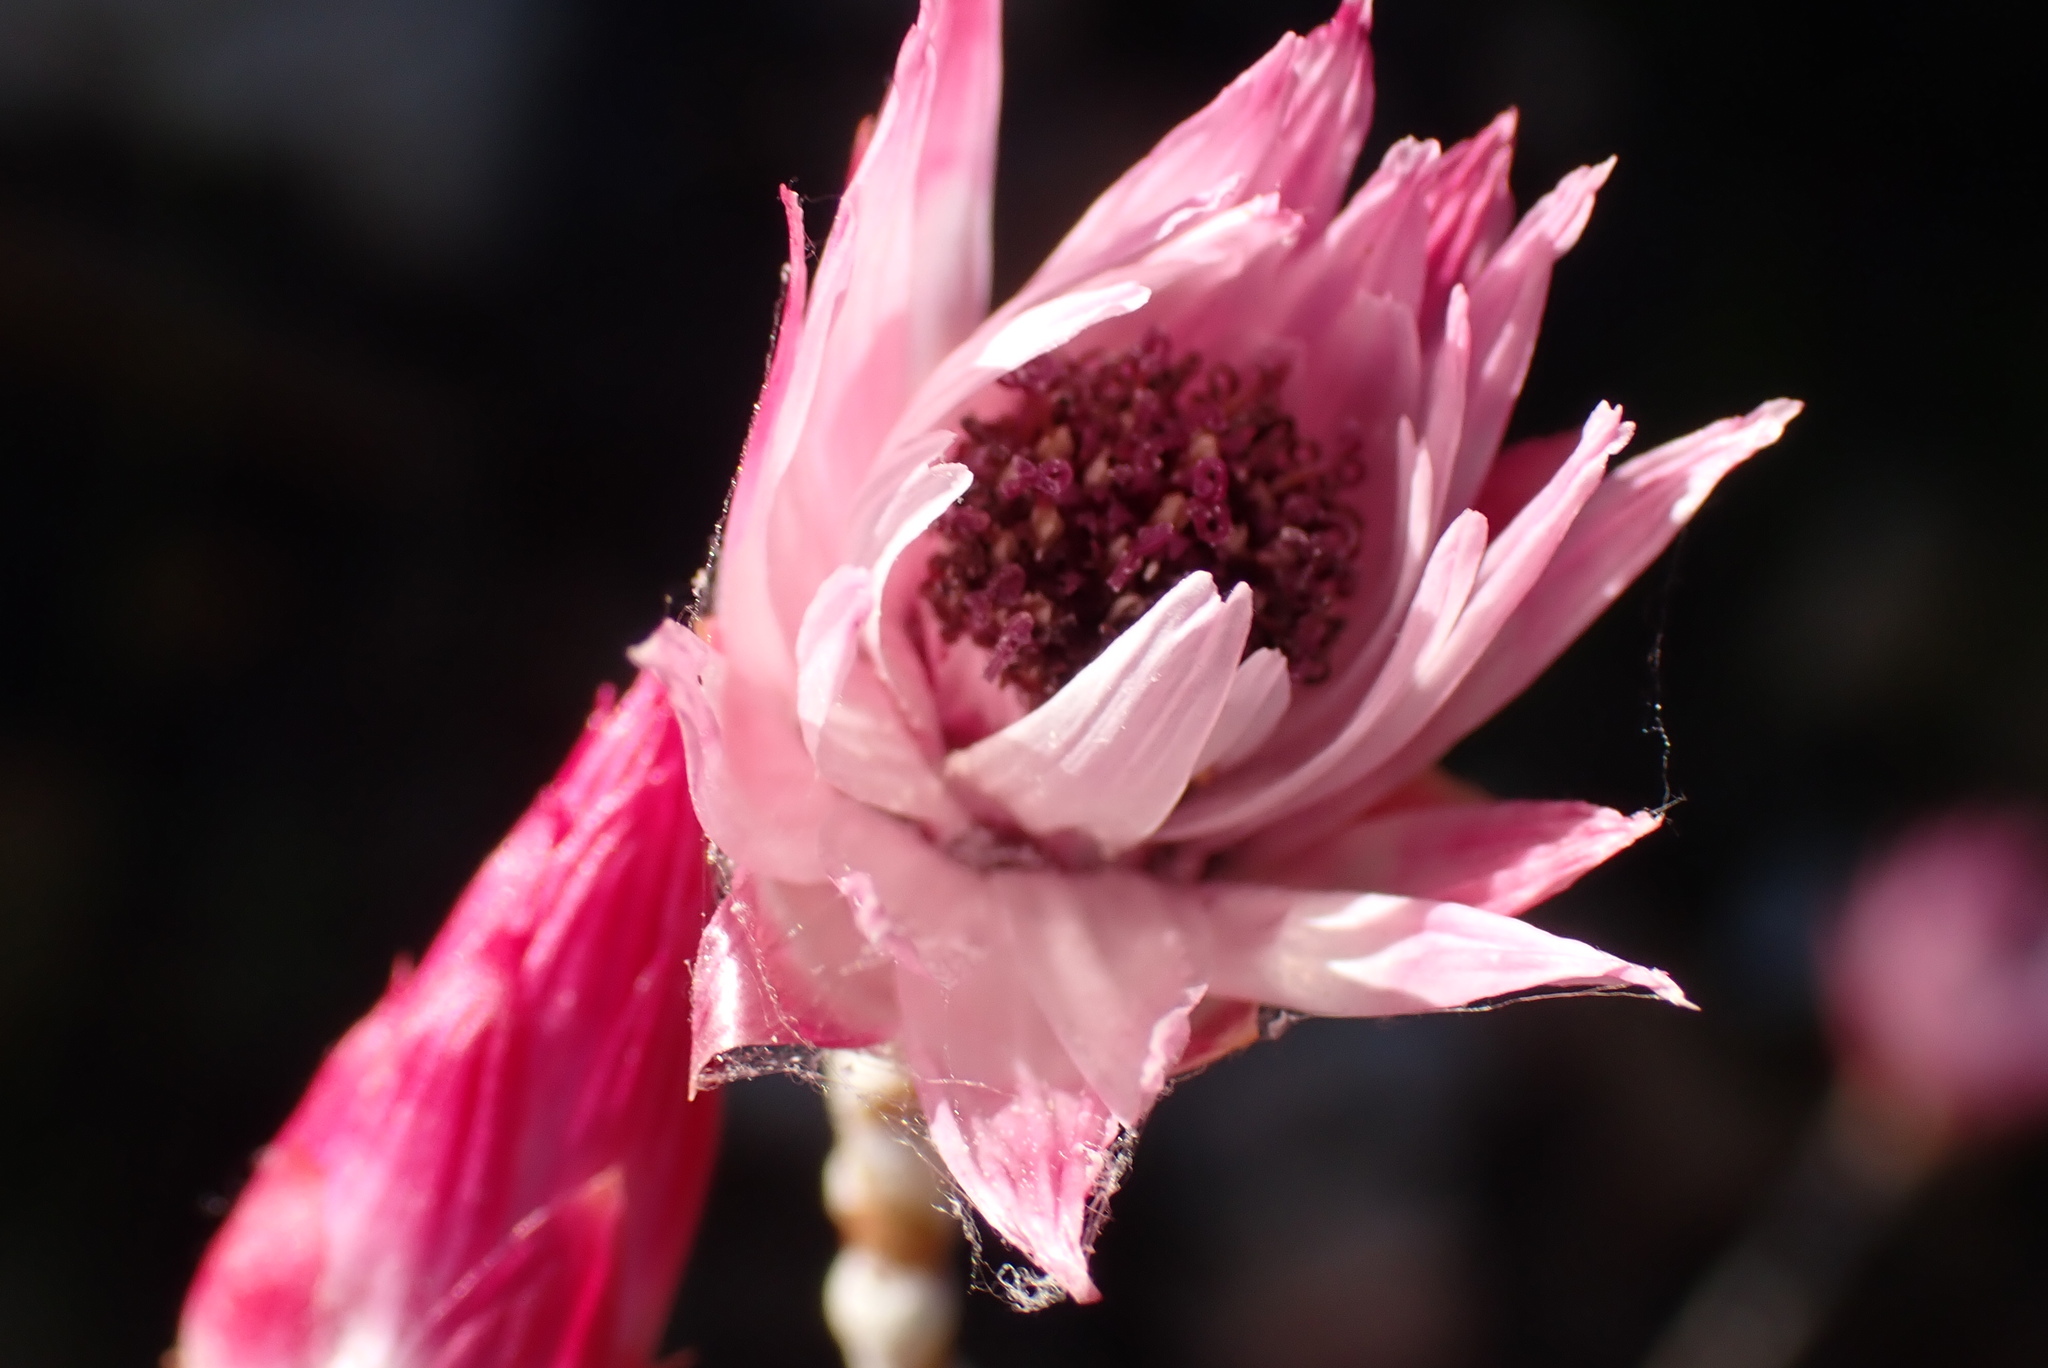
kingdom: Plantae
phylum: Tracheophyta
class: Magnoliopsida
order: Asterales
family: Asteraceae
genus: Syncarpha
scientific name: Syncarpha canescens
